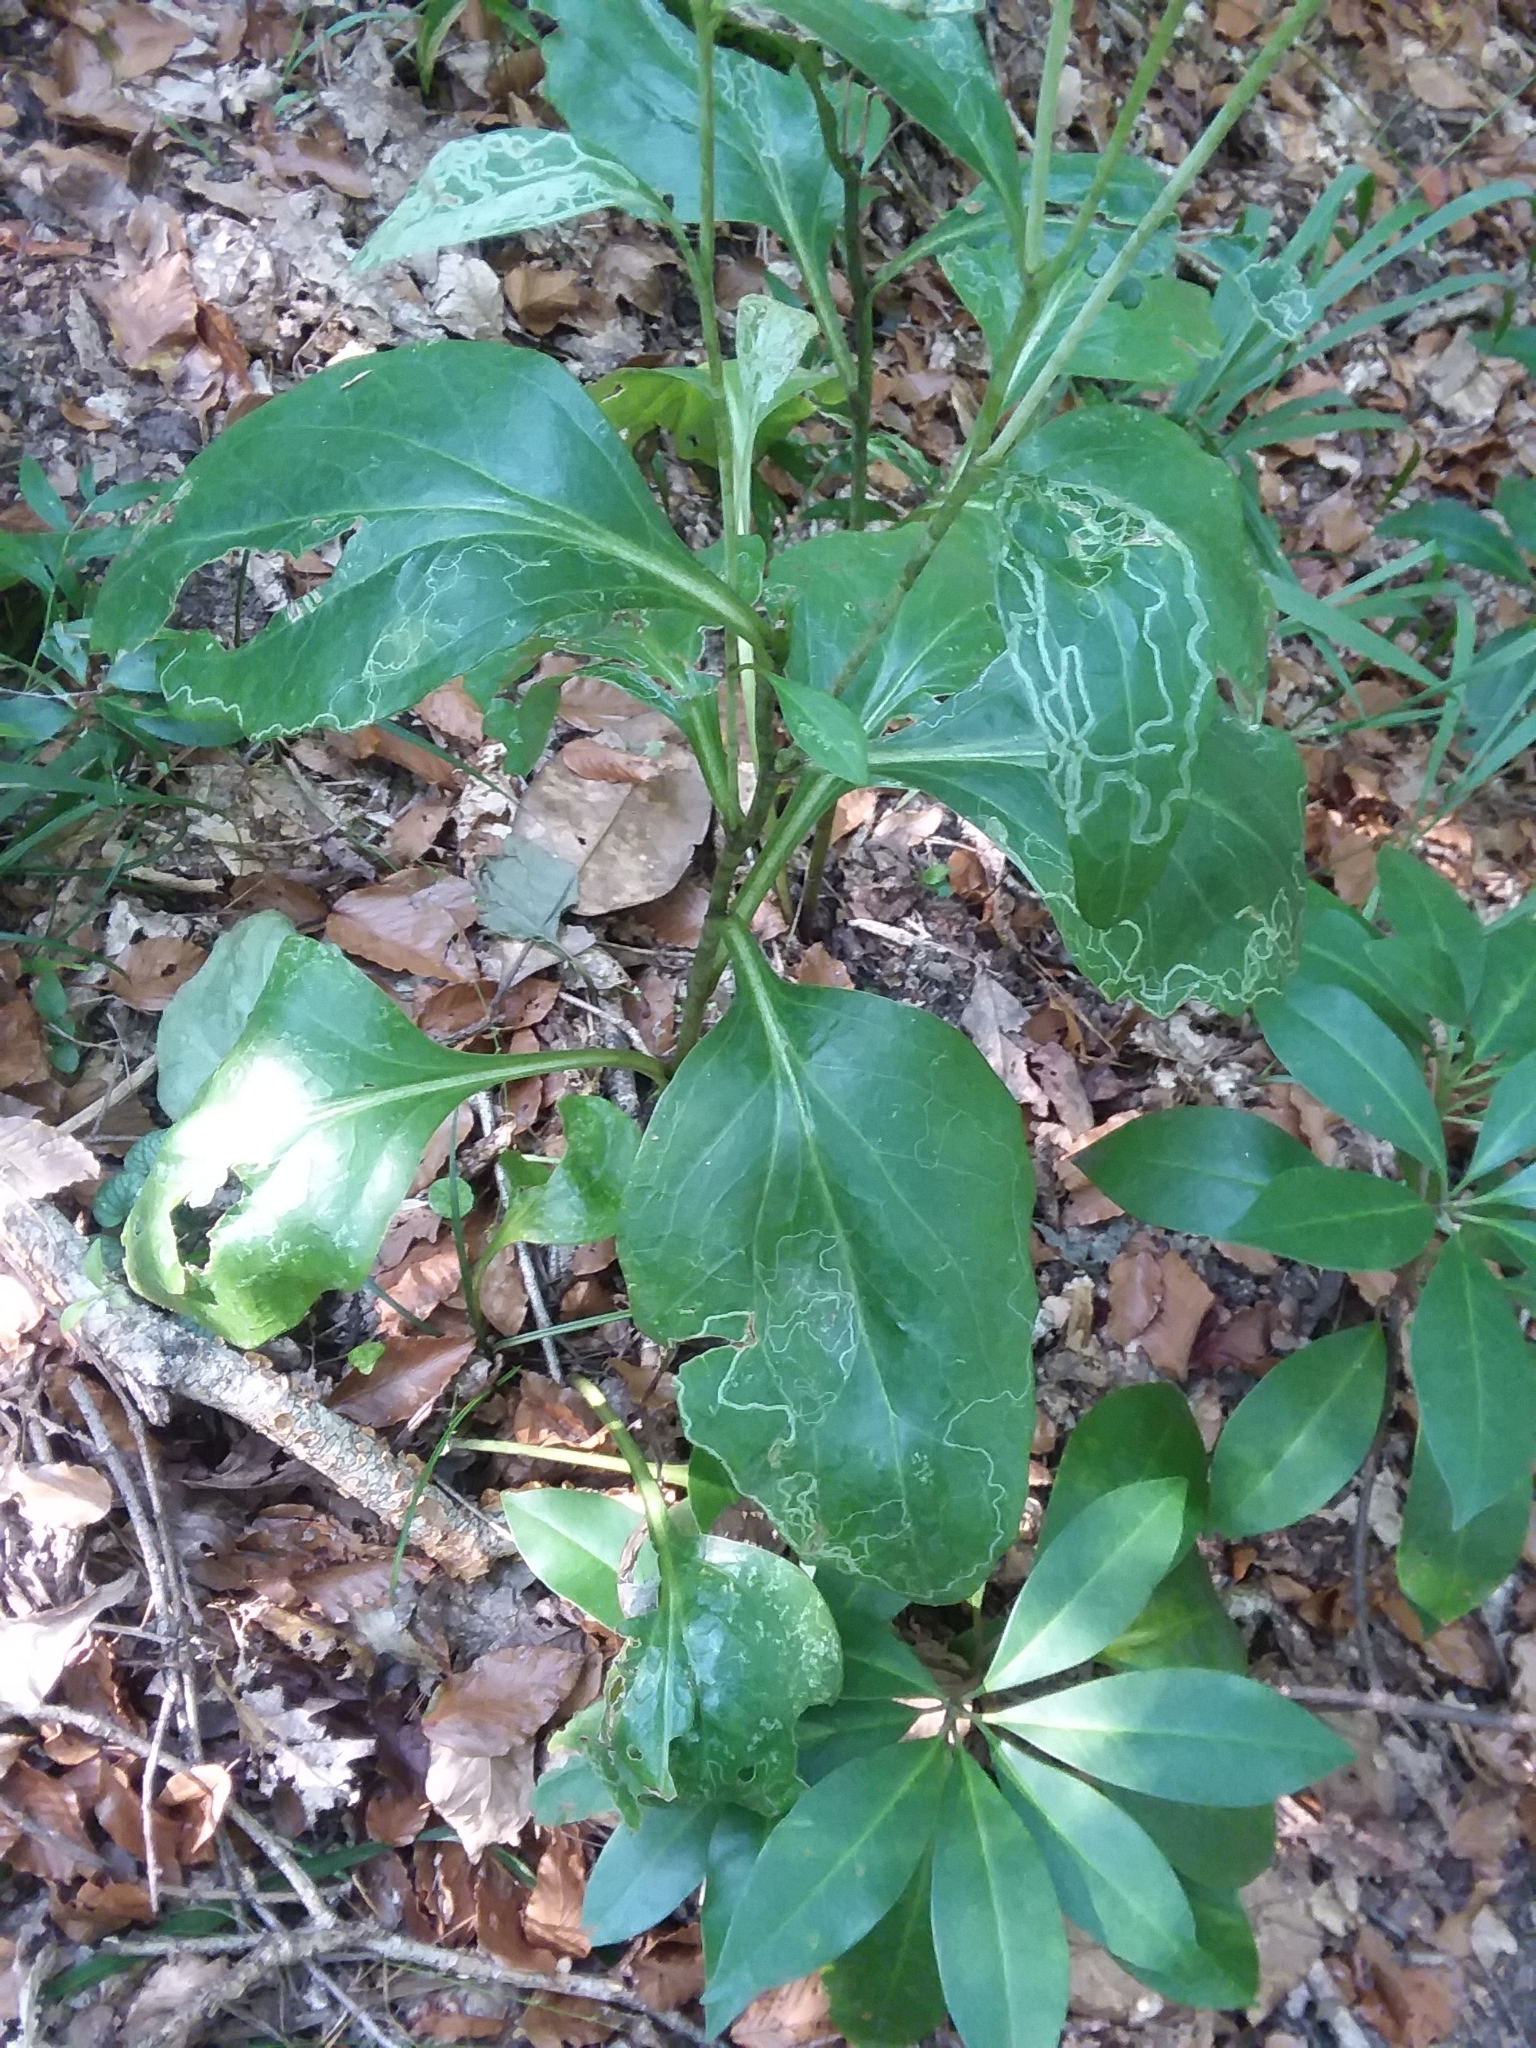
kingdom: Plantae
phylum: Tracheophyta
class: Magnoliopsida
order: Asterales
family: Asteraceae
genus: Arnoglossum
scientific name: Arnoglossum ovatum
